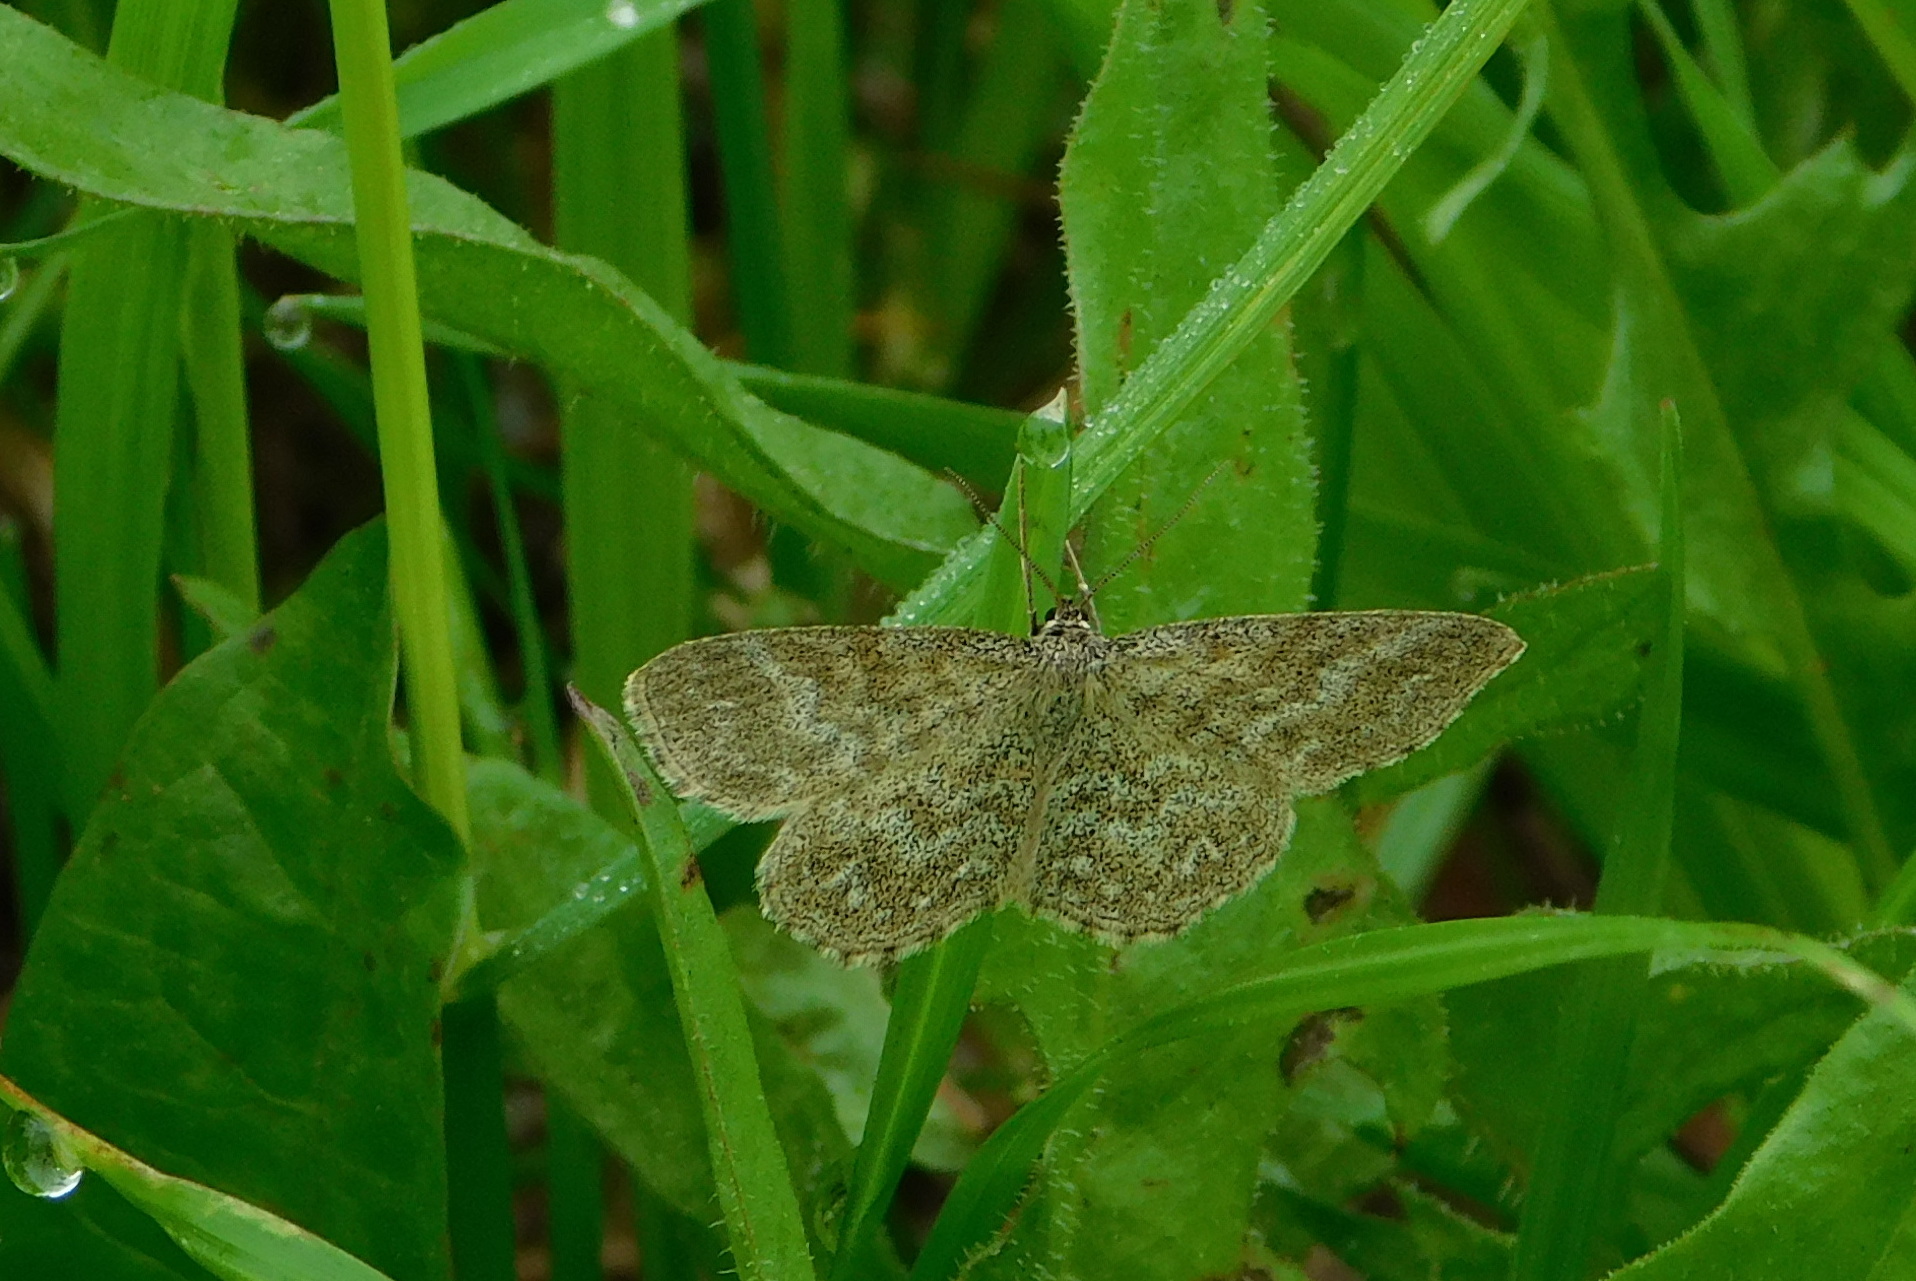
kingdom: Animalia
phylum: Arthropoda
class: Insecta
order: Lepidoptera
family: Geometridae
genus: Scopula
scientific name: Scopula immorata
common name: Lewes wave
